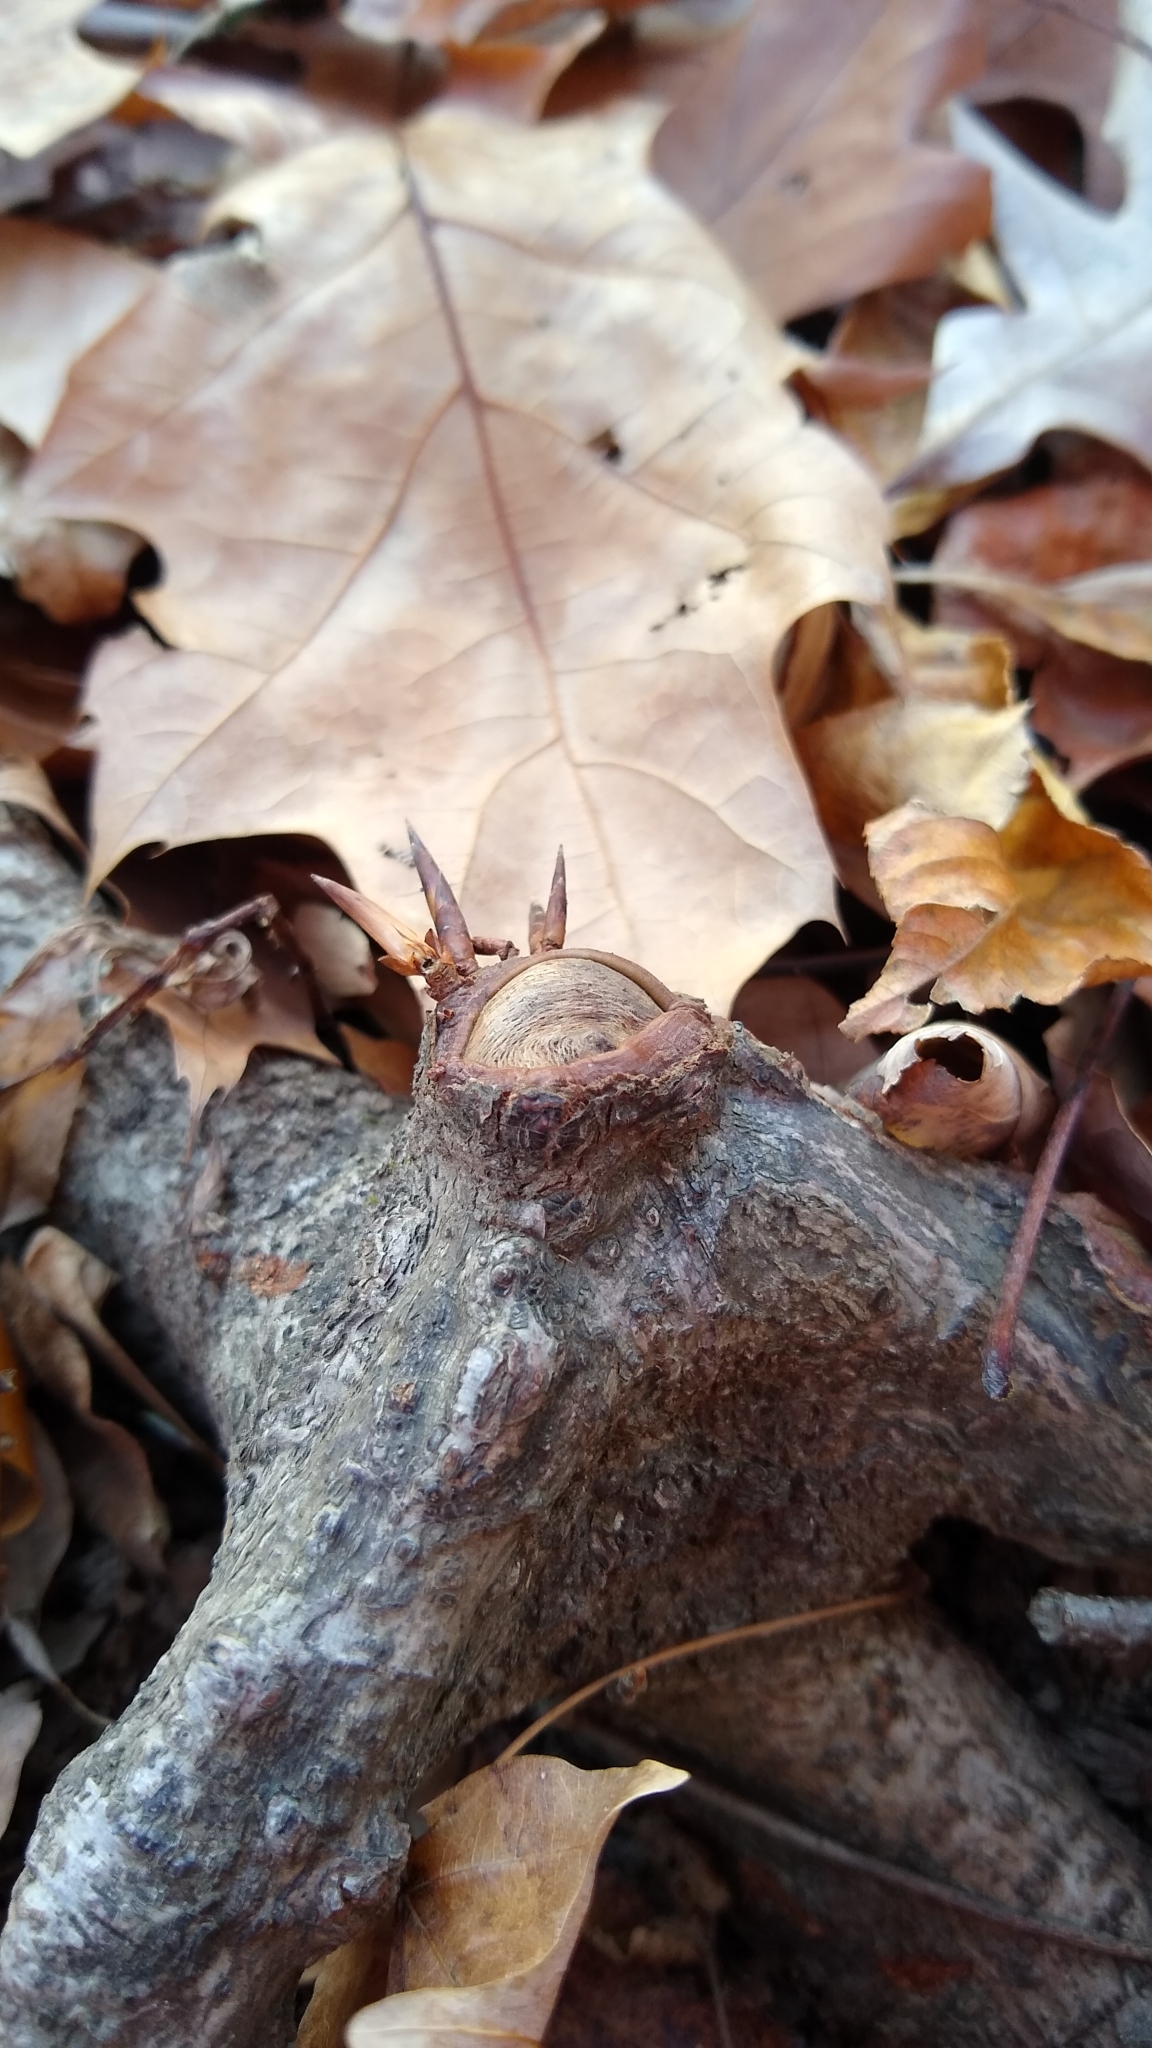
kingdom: Plantae
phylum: Tracheophyta
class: Magnoliopsida
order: Fagales
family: Fagaceae
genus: Fagus
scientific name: Fagus grandifolia
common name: American beech
